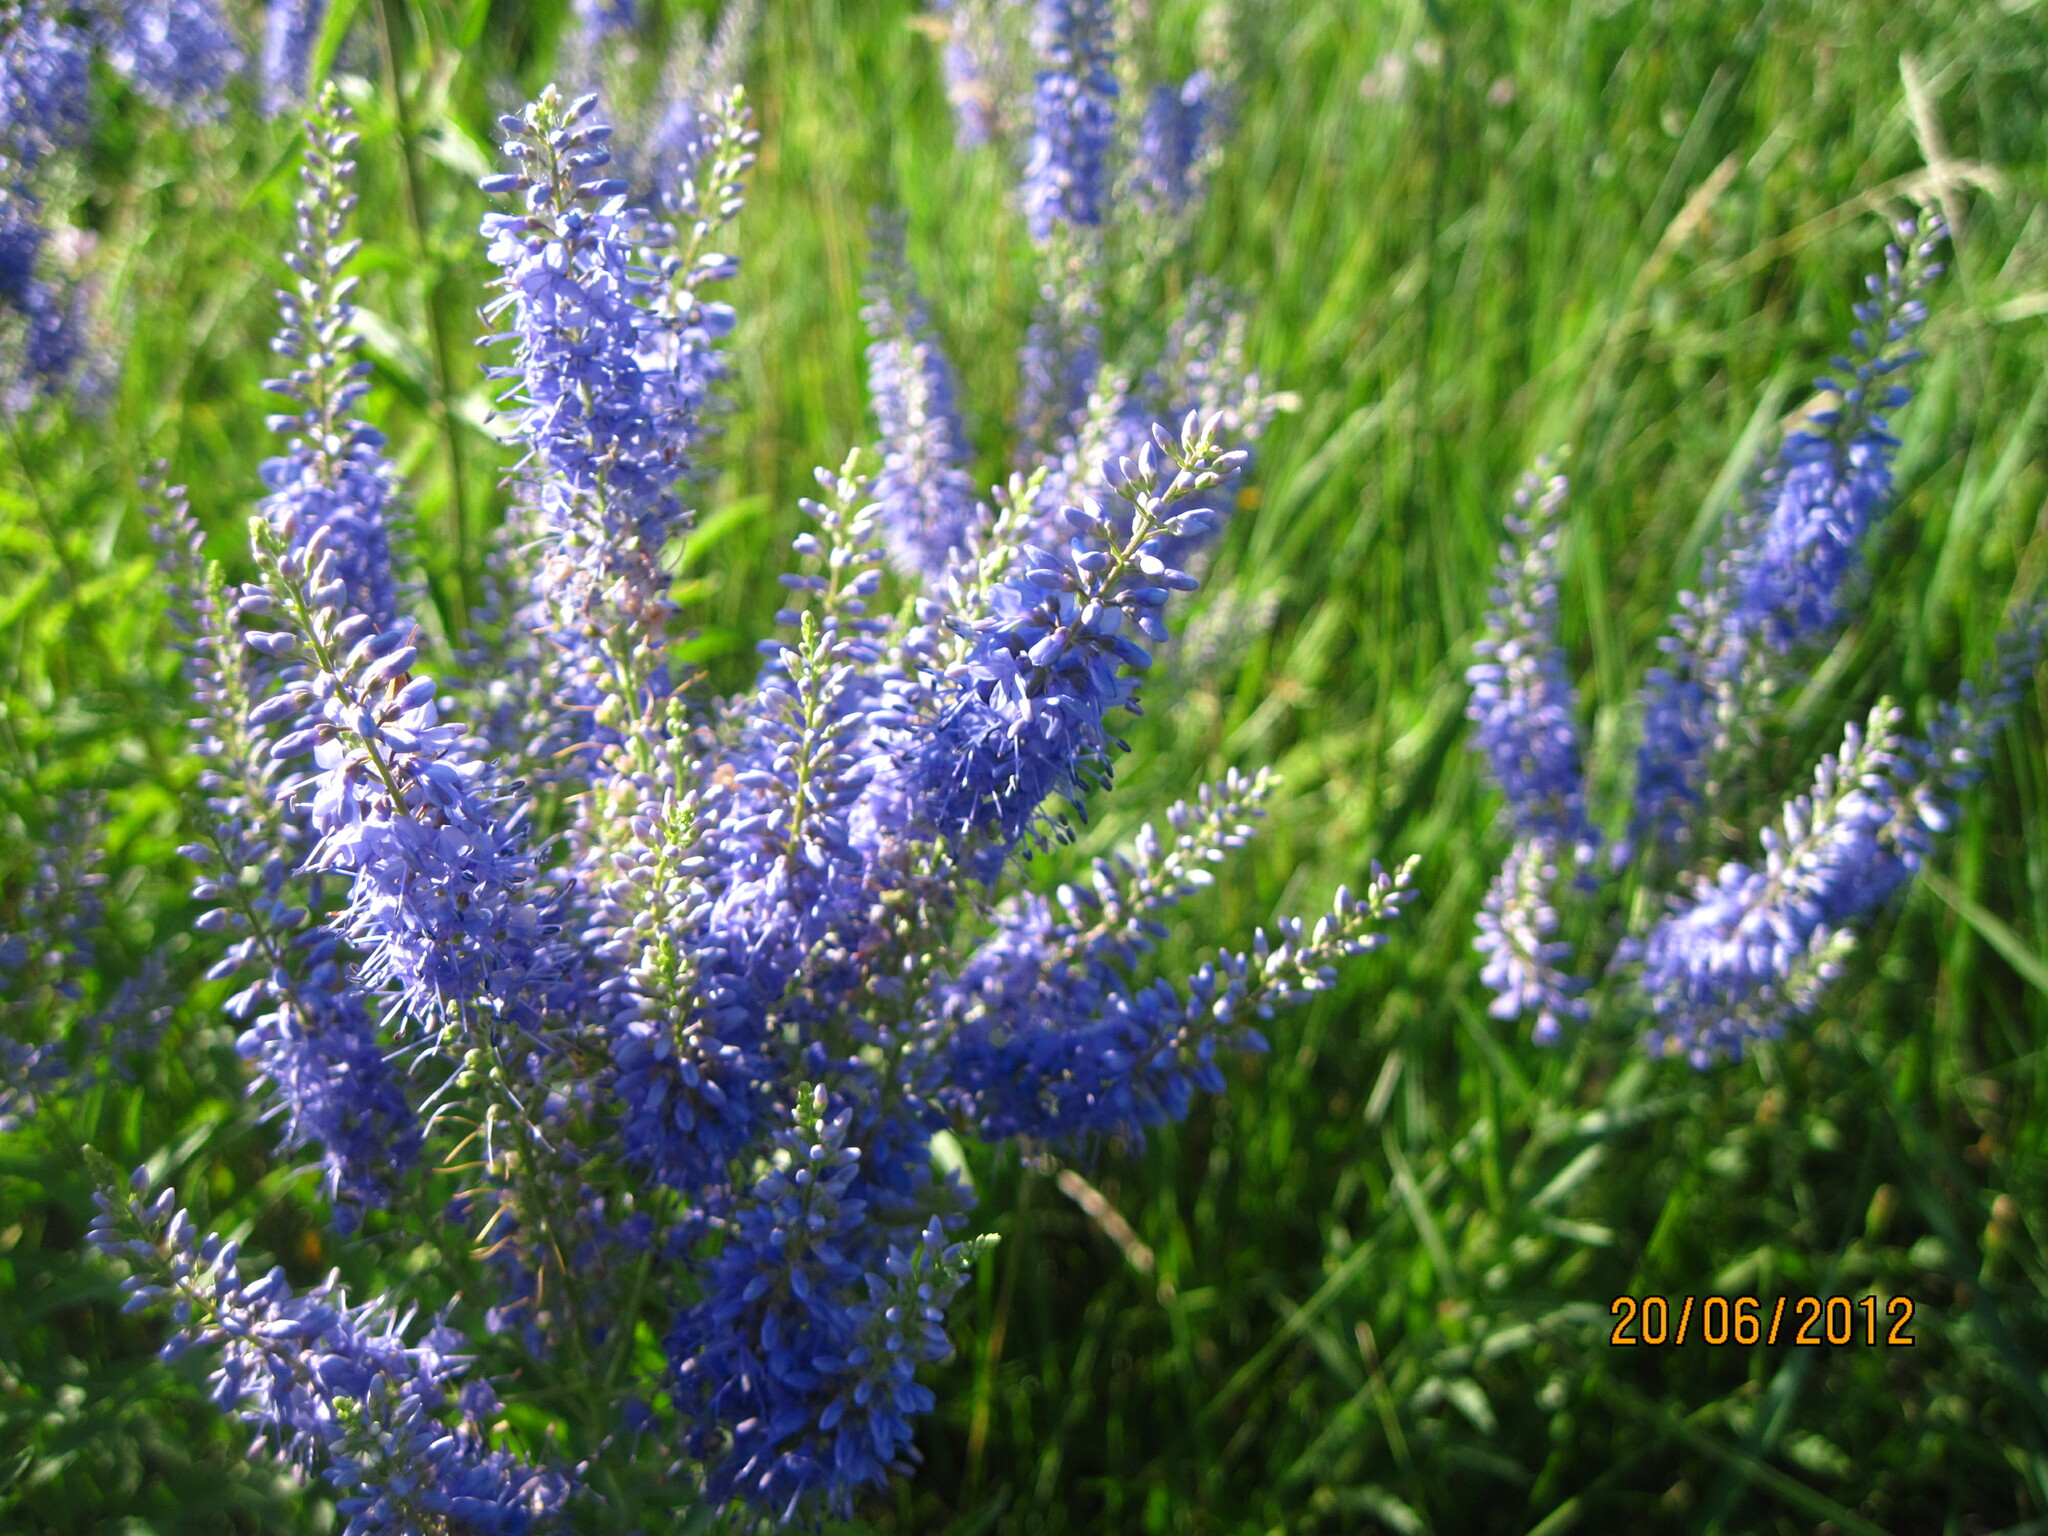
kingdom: Plantae
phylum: Tracheophyta
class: Magnoliopsida
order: Lamiales
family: Plantaginaceae
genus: Veronica
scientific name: Veronica spuria
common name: Bastard speedwell
